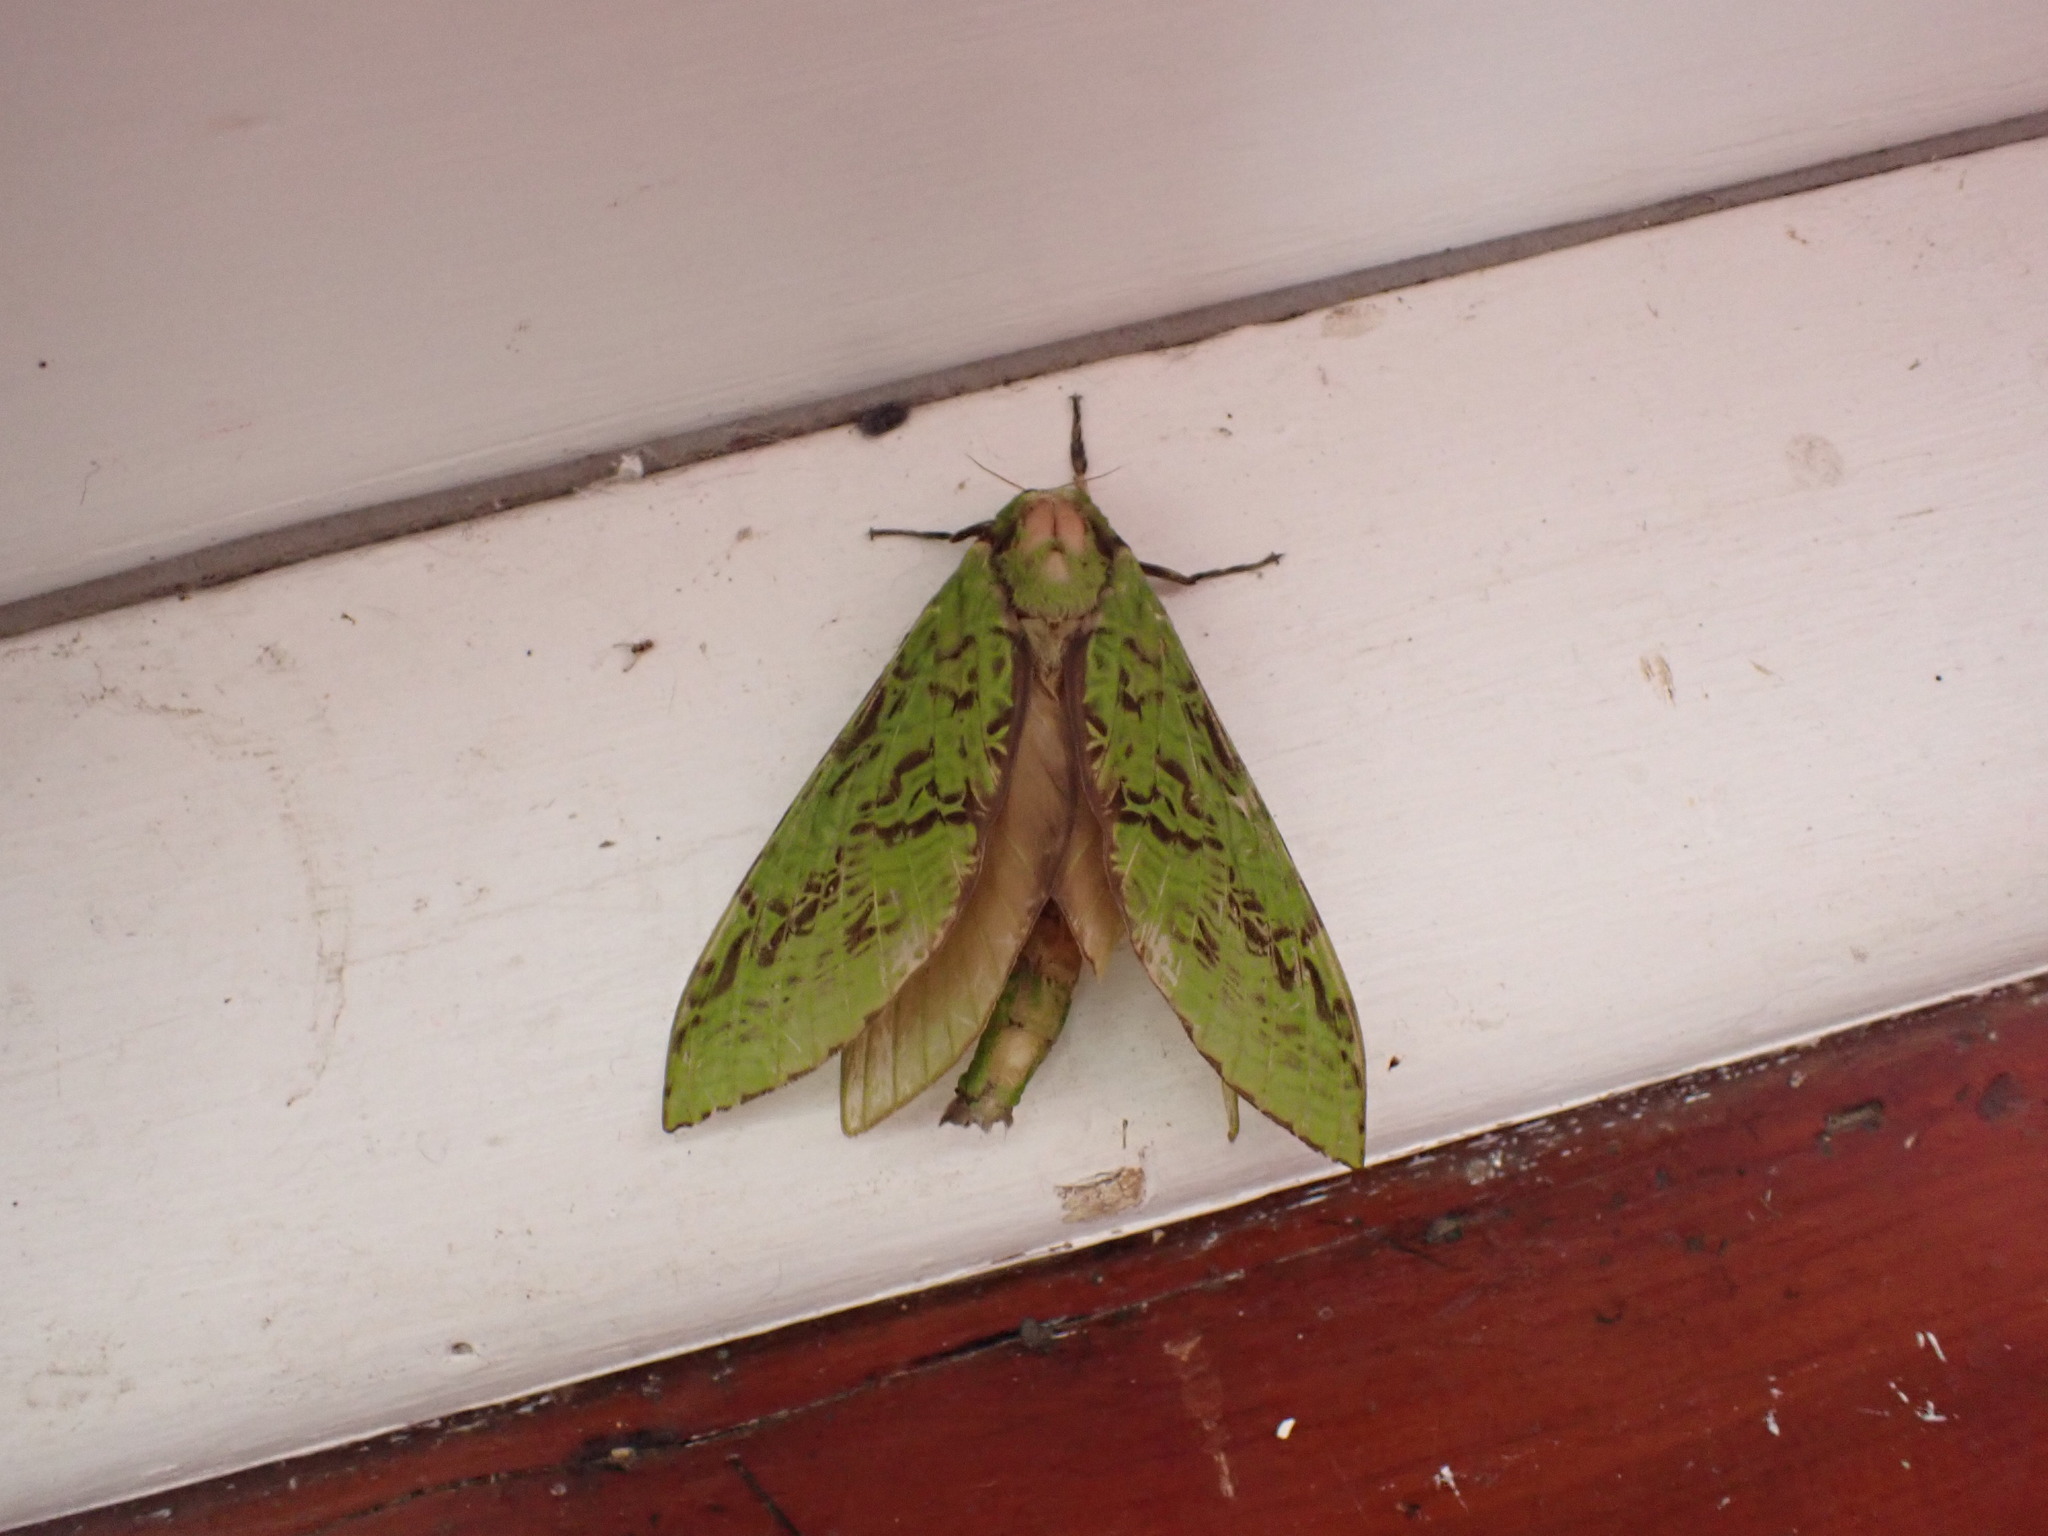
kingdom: Animalia
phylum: Arthropoda
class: Insecta
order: Lepidoptera
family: Hepialidae
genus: Aenetus
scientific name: Aenetus virescens
